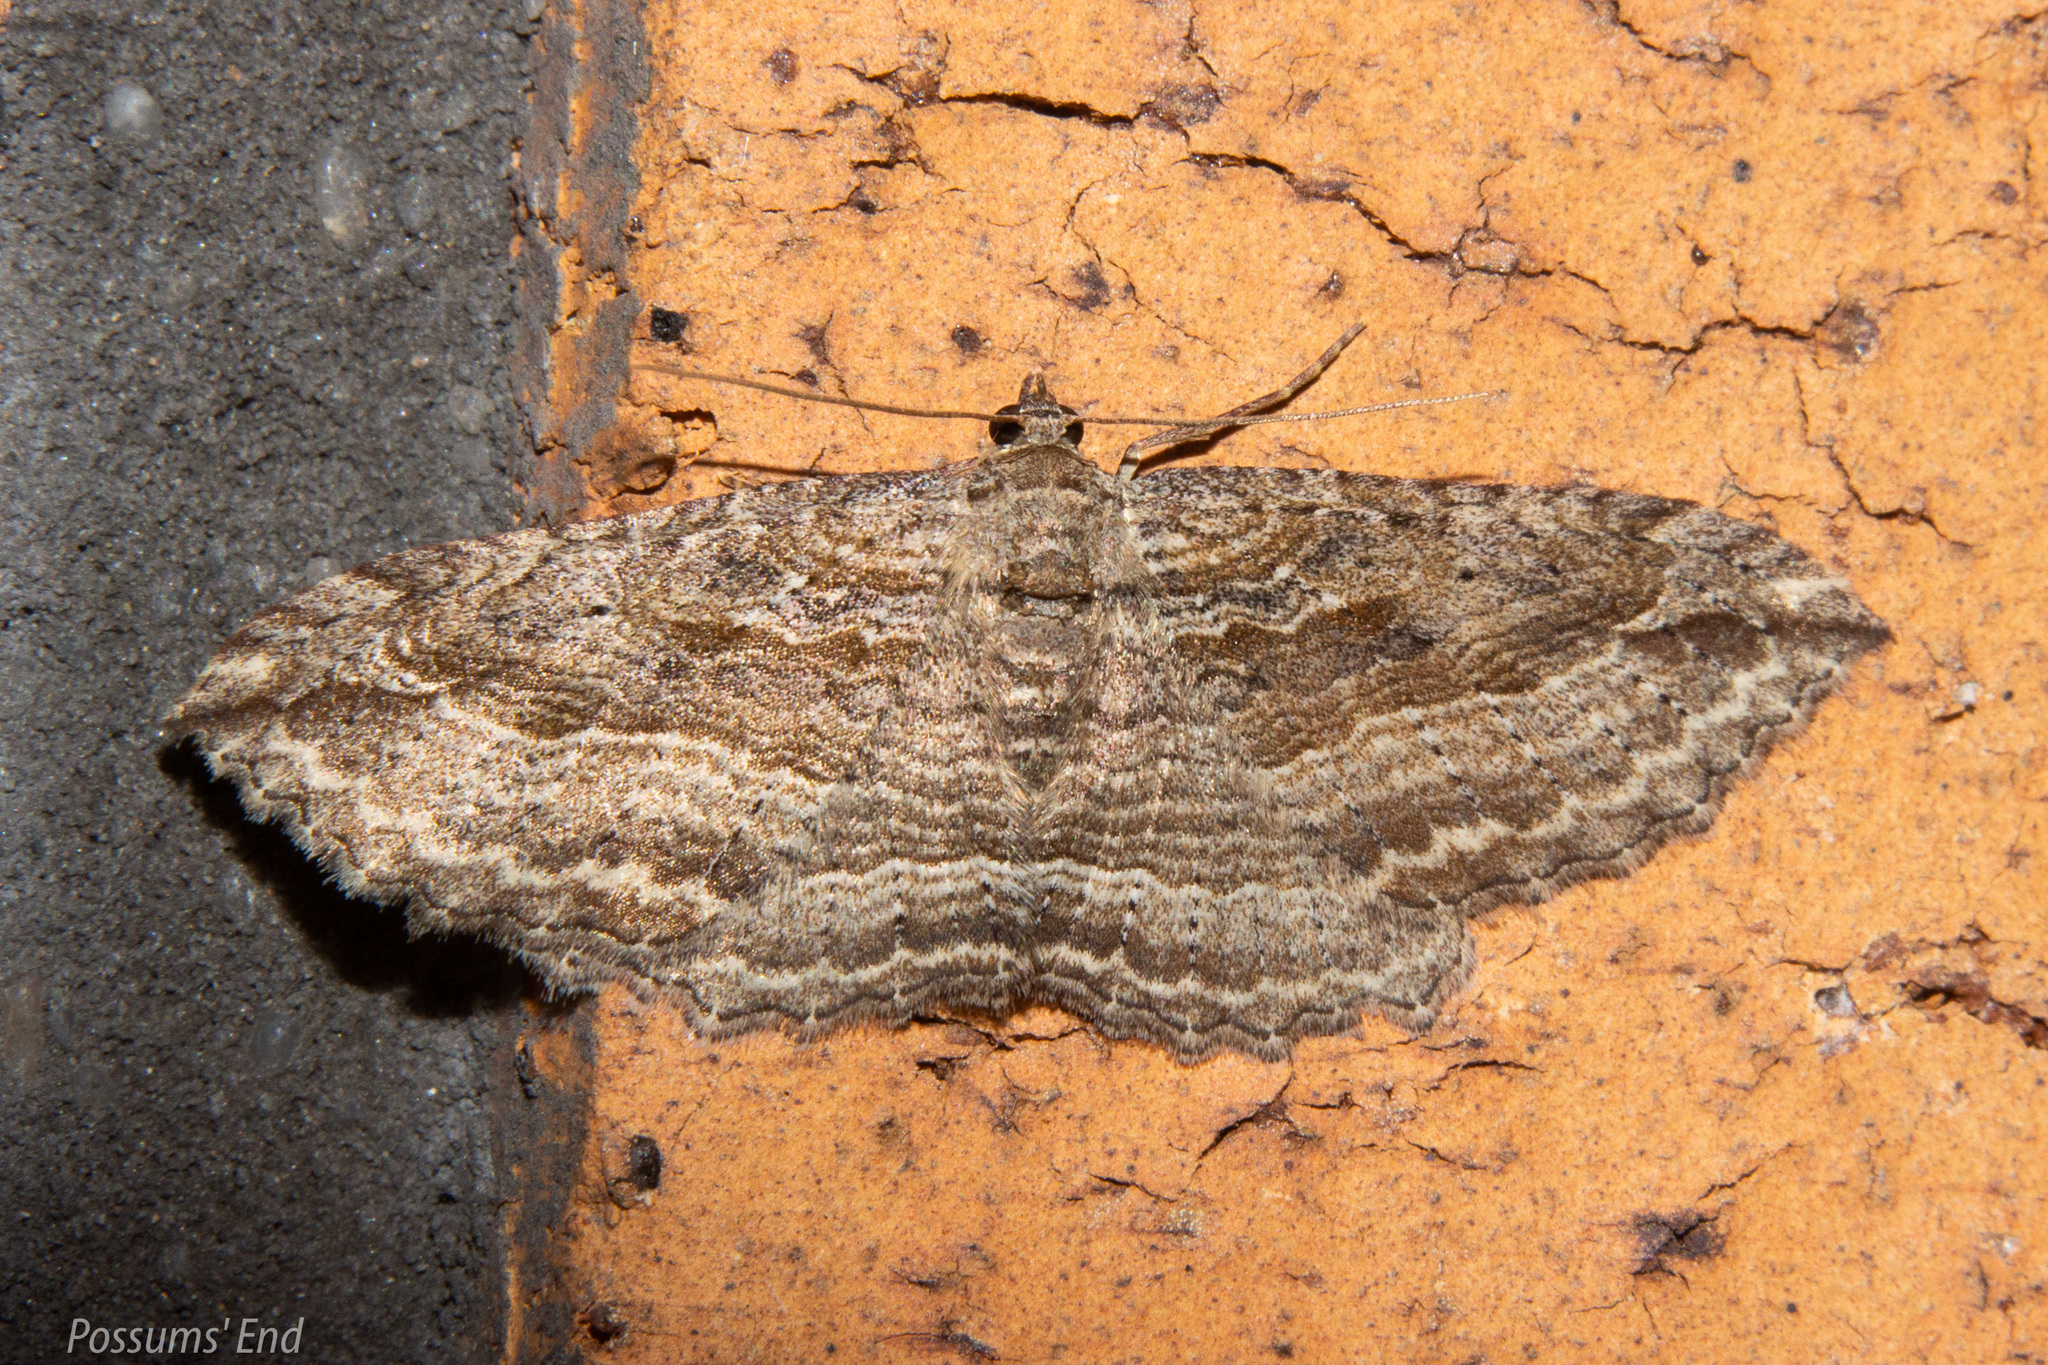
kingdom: Animalia
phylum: Arthropoda
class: Insecta
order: Lepidoptera
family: Geometridae
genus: Austrocidaria
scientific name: Austrocidaria gobiata
